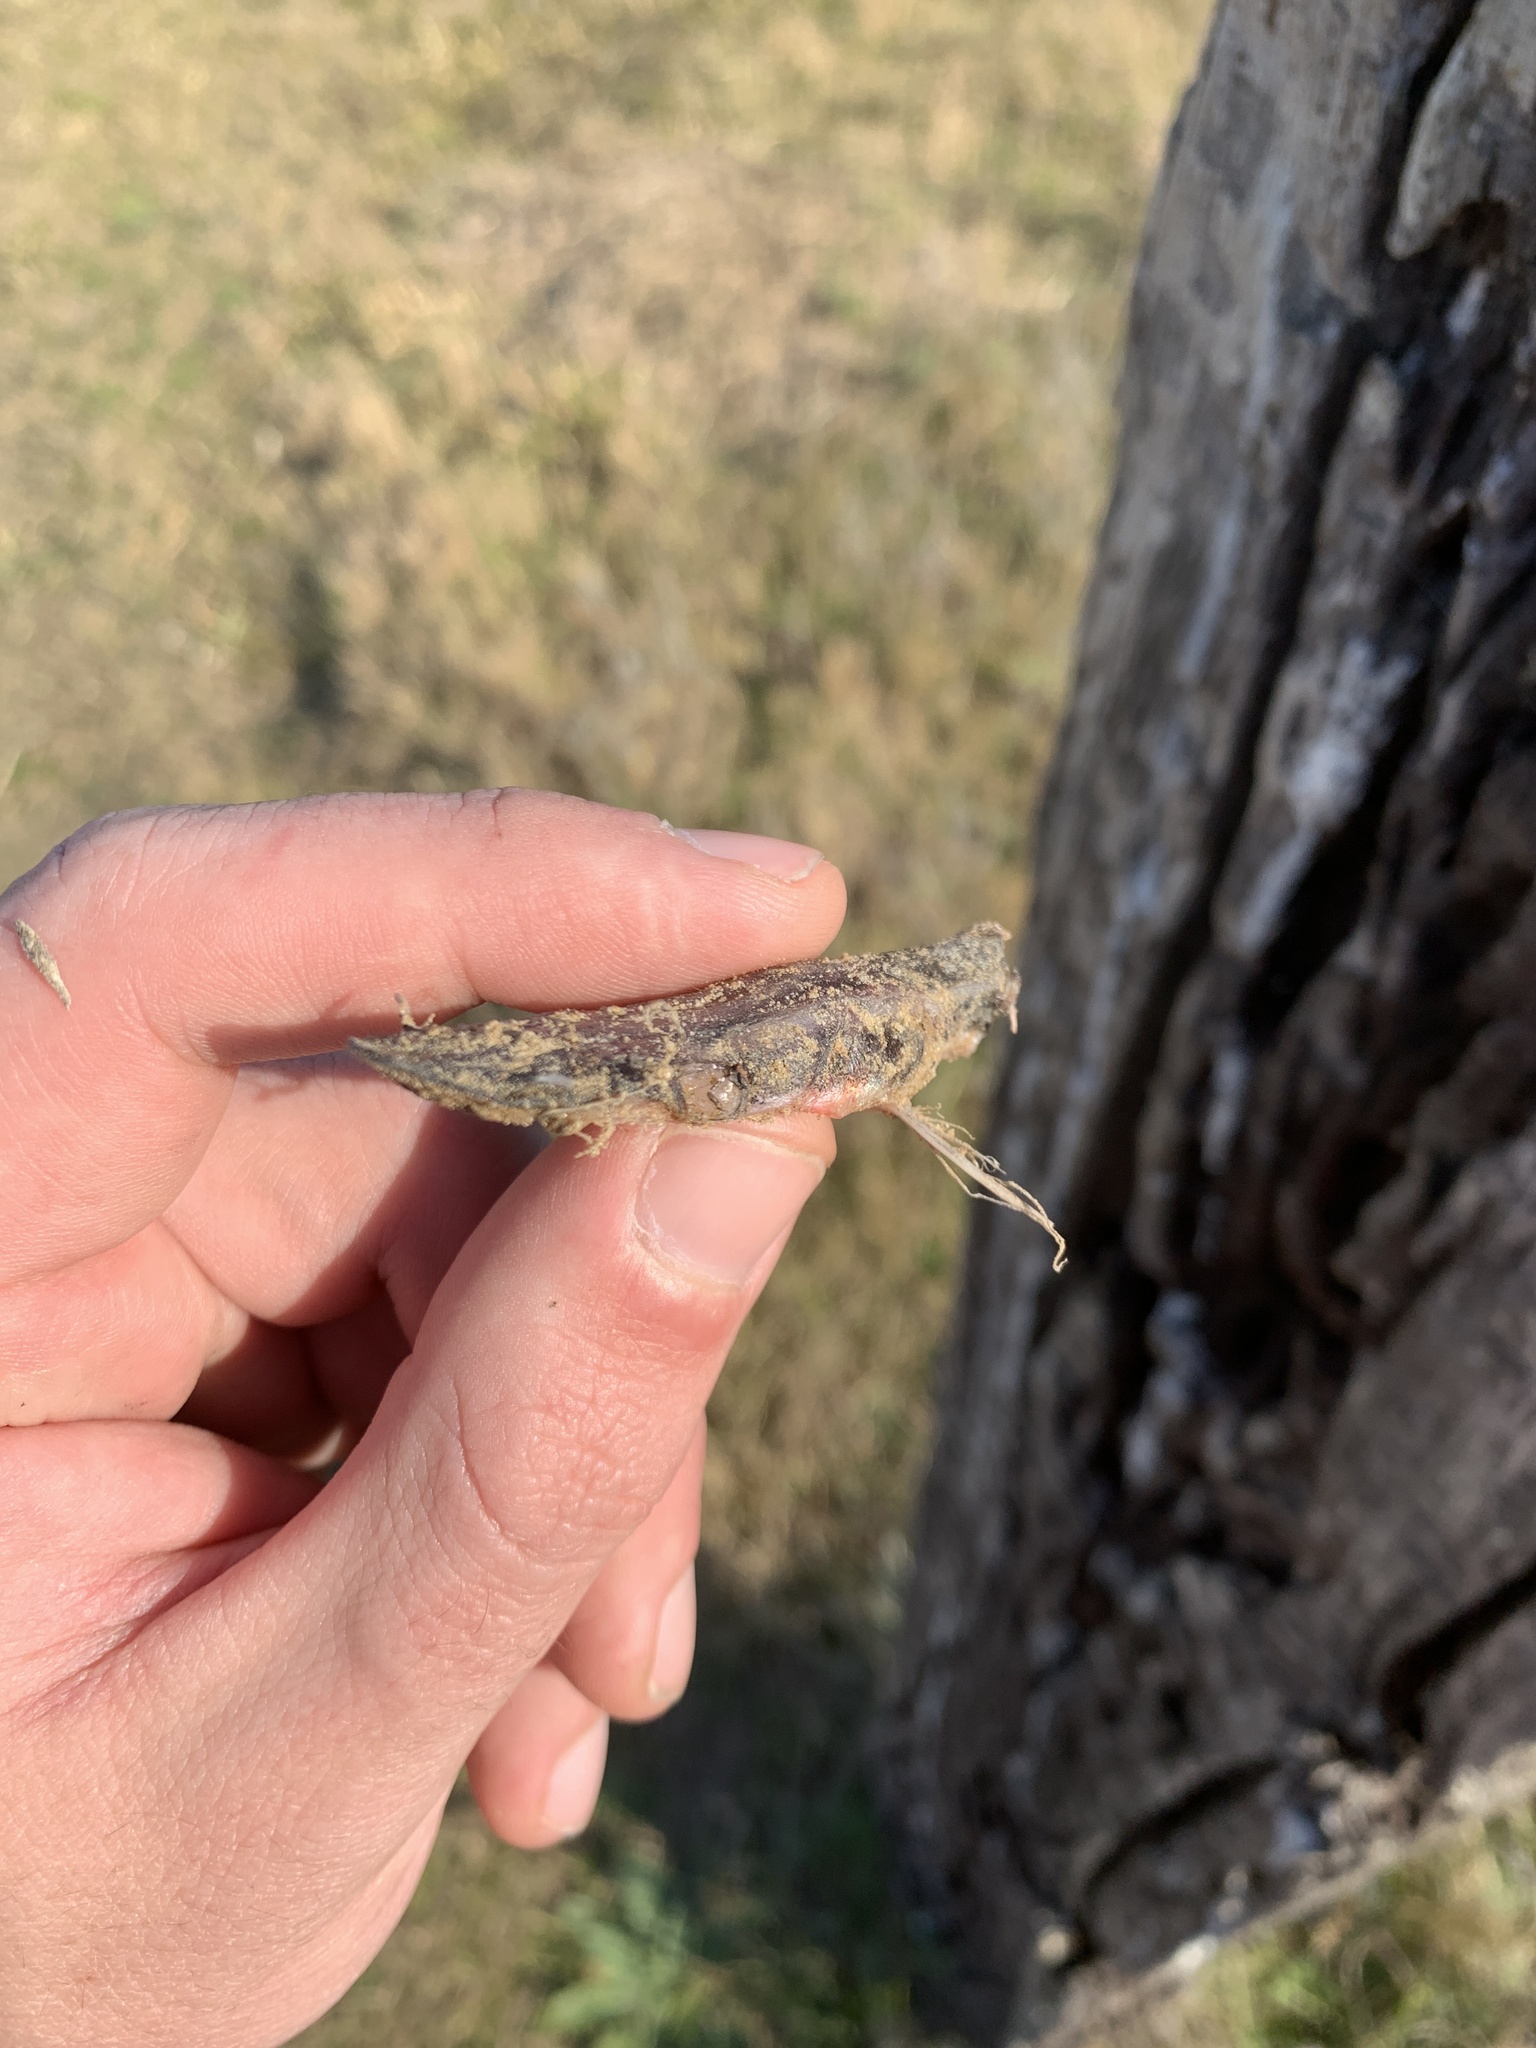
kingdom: Animalia
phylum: Chordata
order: Siluriformes
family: Pimelodidae
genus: Sorubim
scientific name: Sorubim lima
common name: Duckbill catfish
